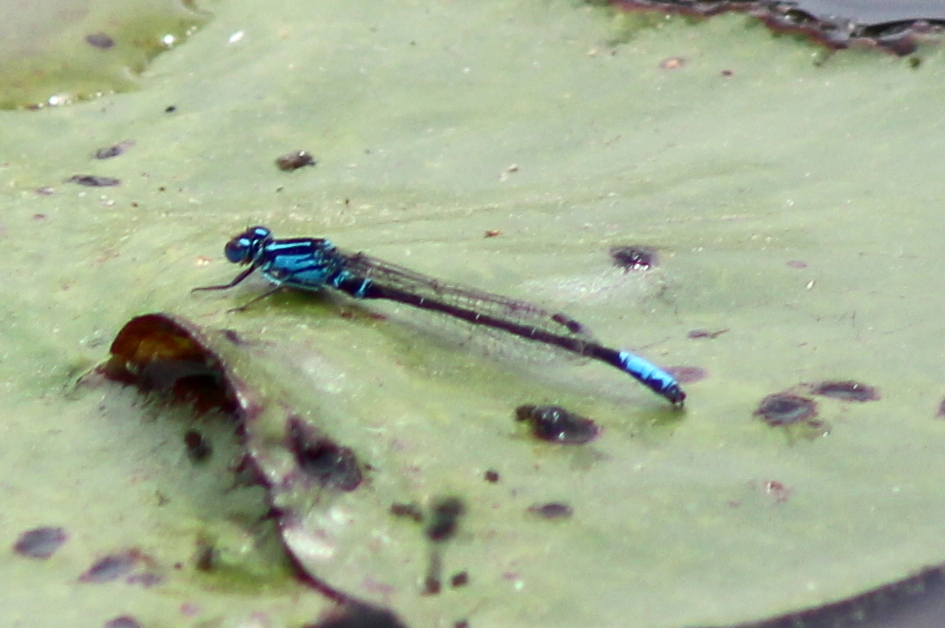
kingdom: Animalia
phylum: Arthropoda
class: Insecta
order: Odonata
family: Coenagrionidae
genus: Ischnura
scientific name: Ischnura kellicotti
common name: Lilypad forktail
